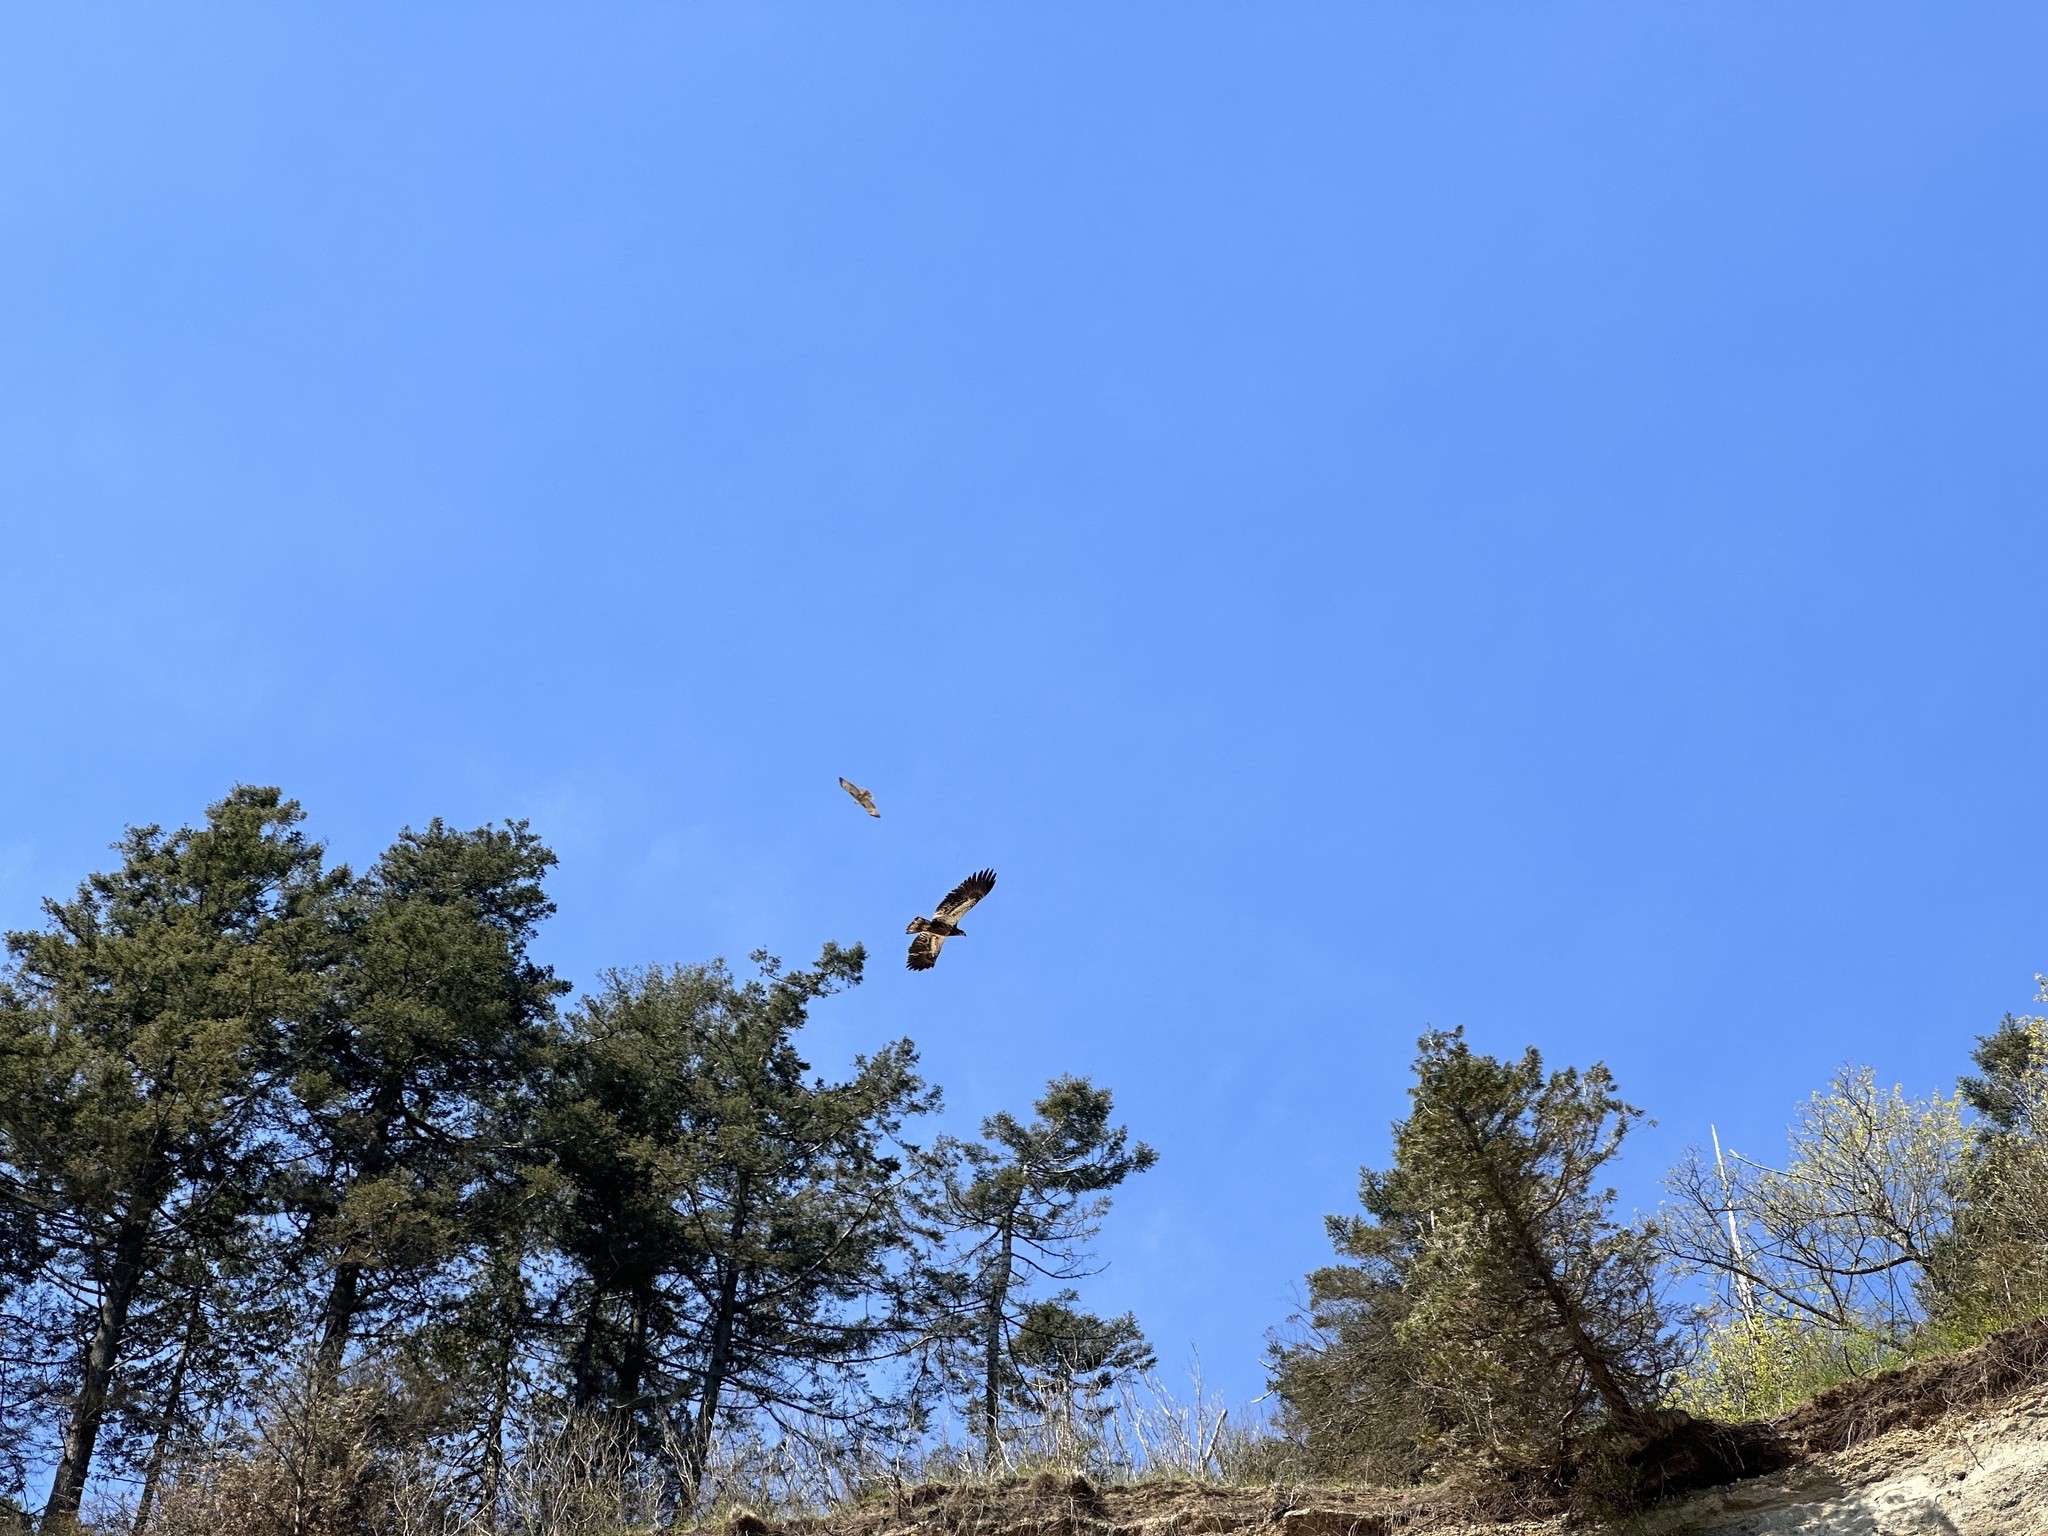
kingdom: Animalia
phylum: Chordata
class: Aves
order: Accipitriformes
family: Accipitridae
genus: Haliaeetus
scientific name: Haliaeetus leucocephalus
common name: Bald eagle
